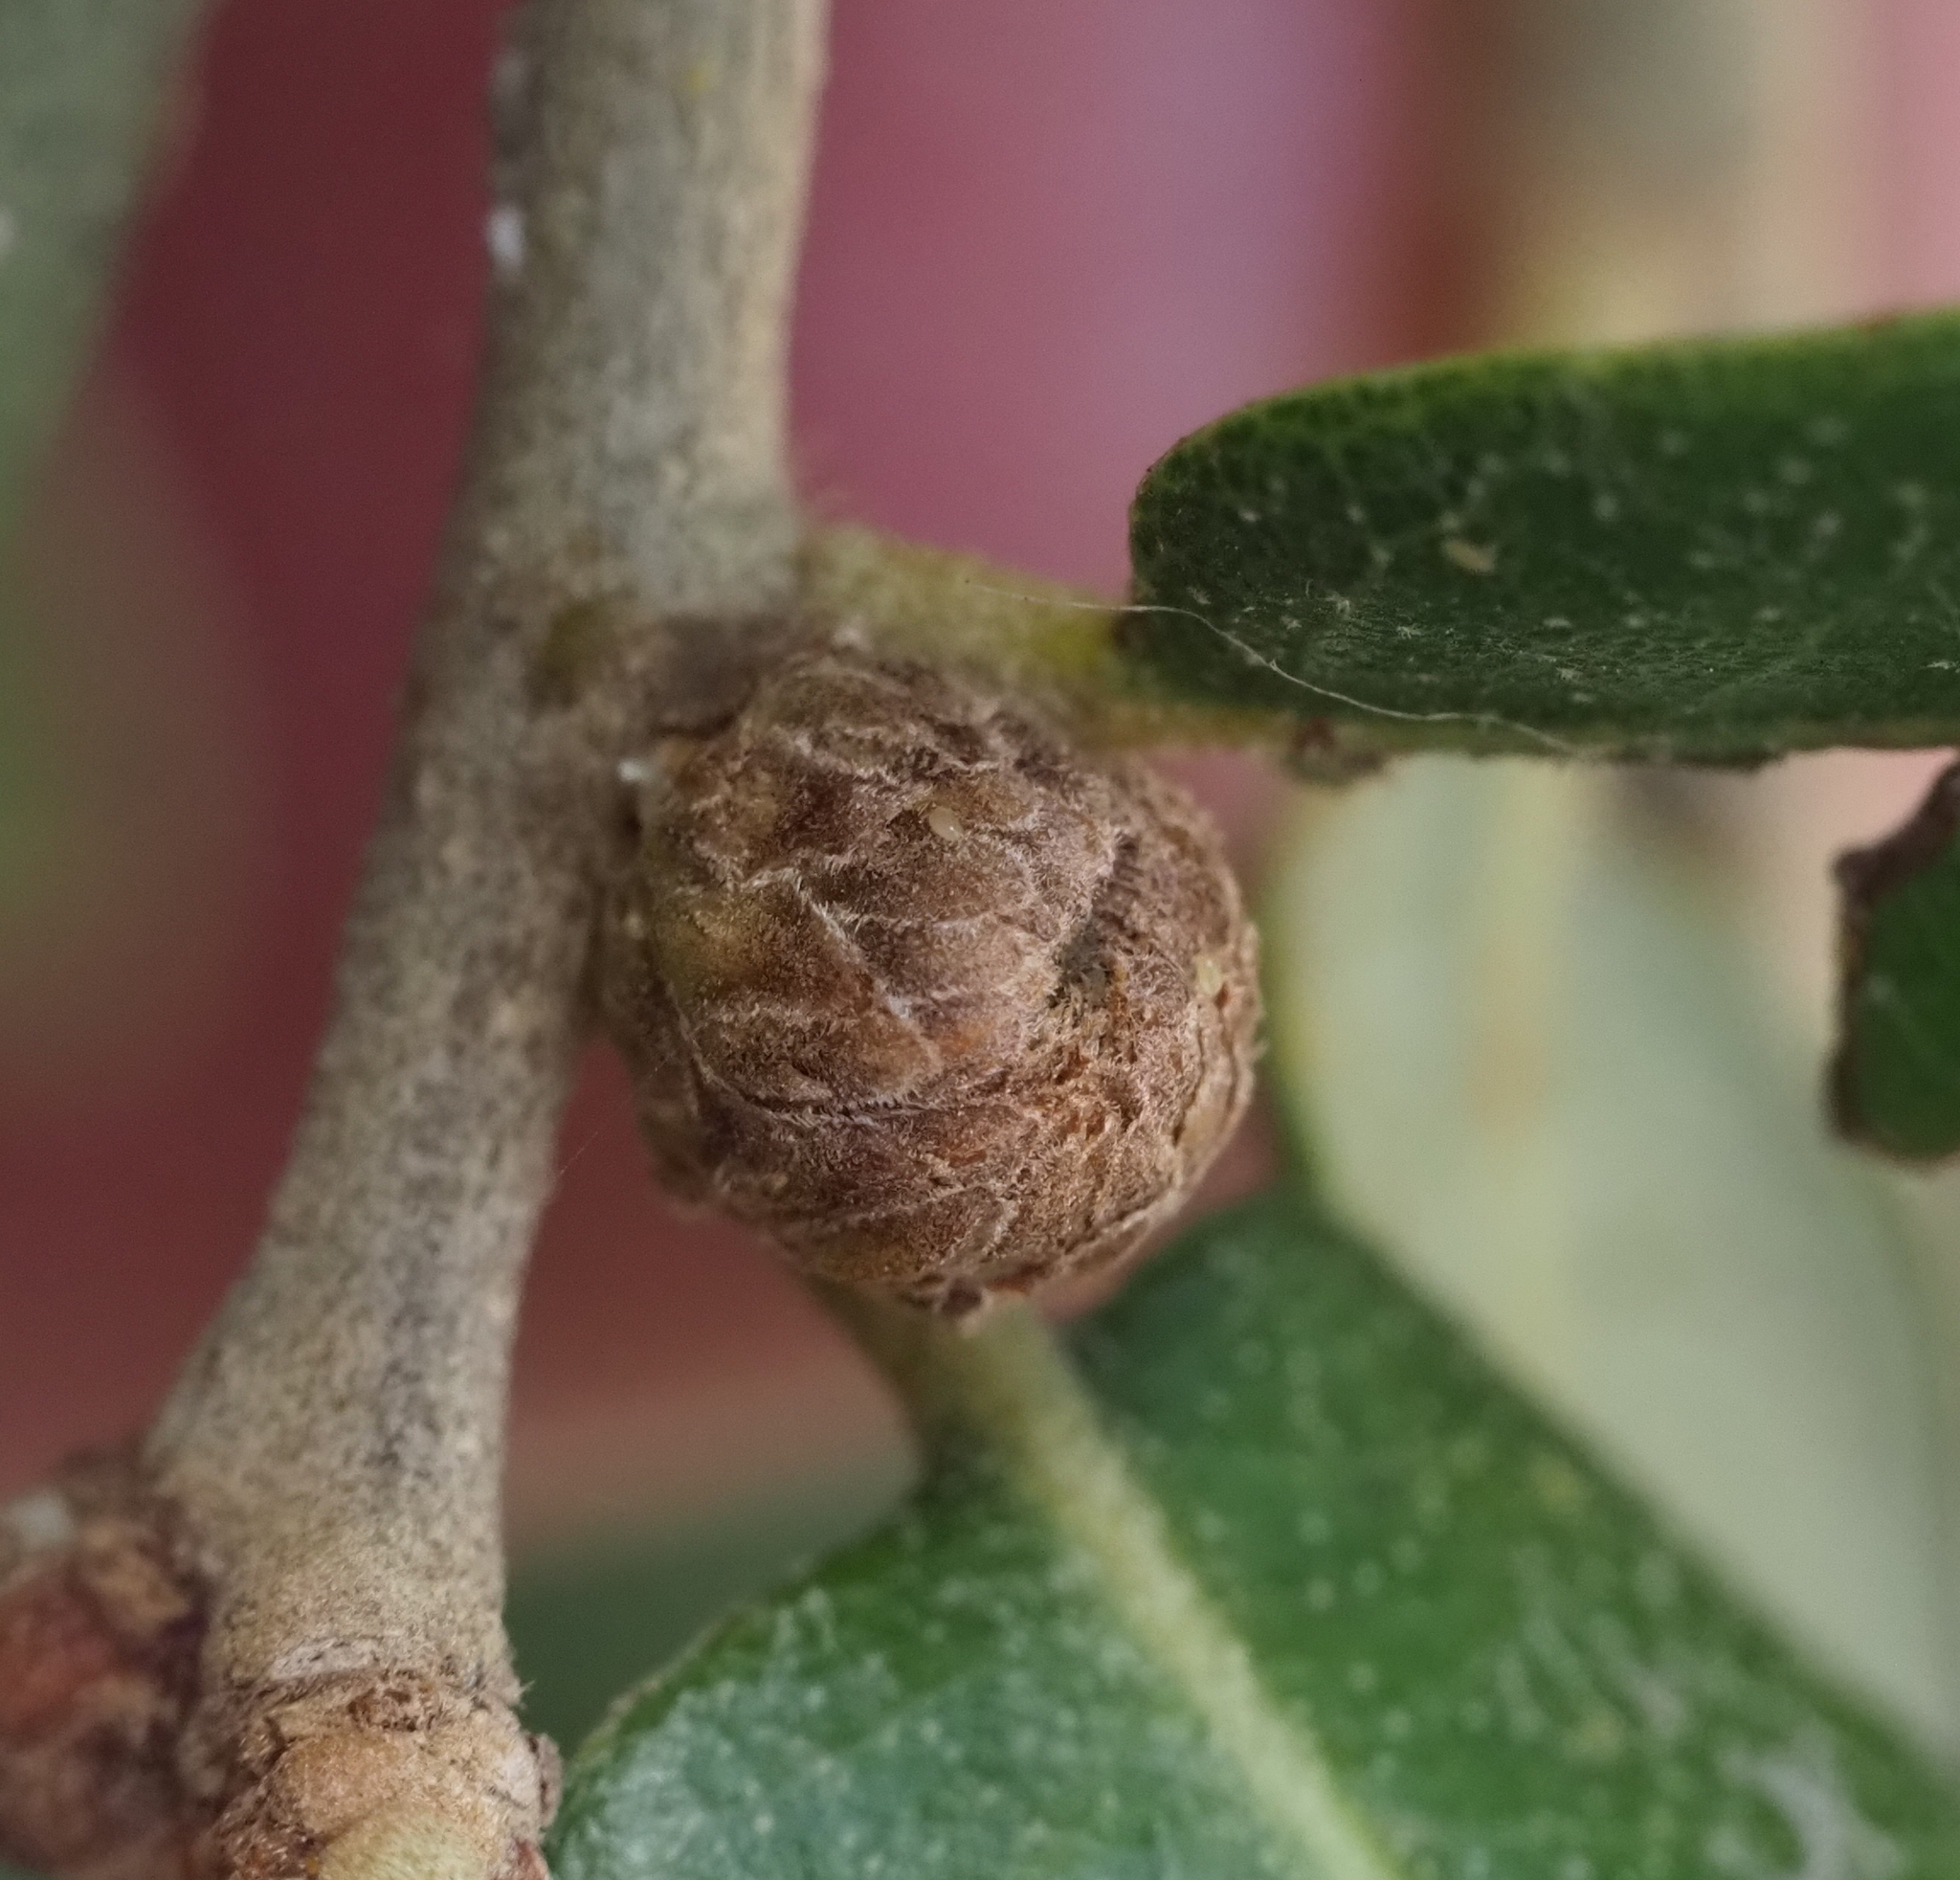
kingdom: Animalia
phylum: Arthropoda
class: Insecta
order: Hymenoptera
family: Cynipidae
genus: Andricus
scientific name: Andricus quercusfoliatus
